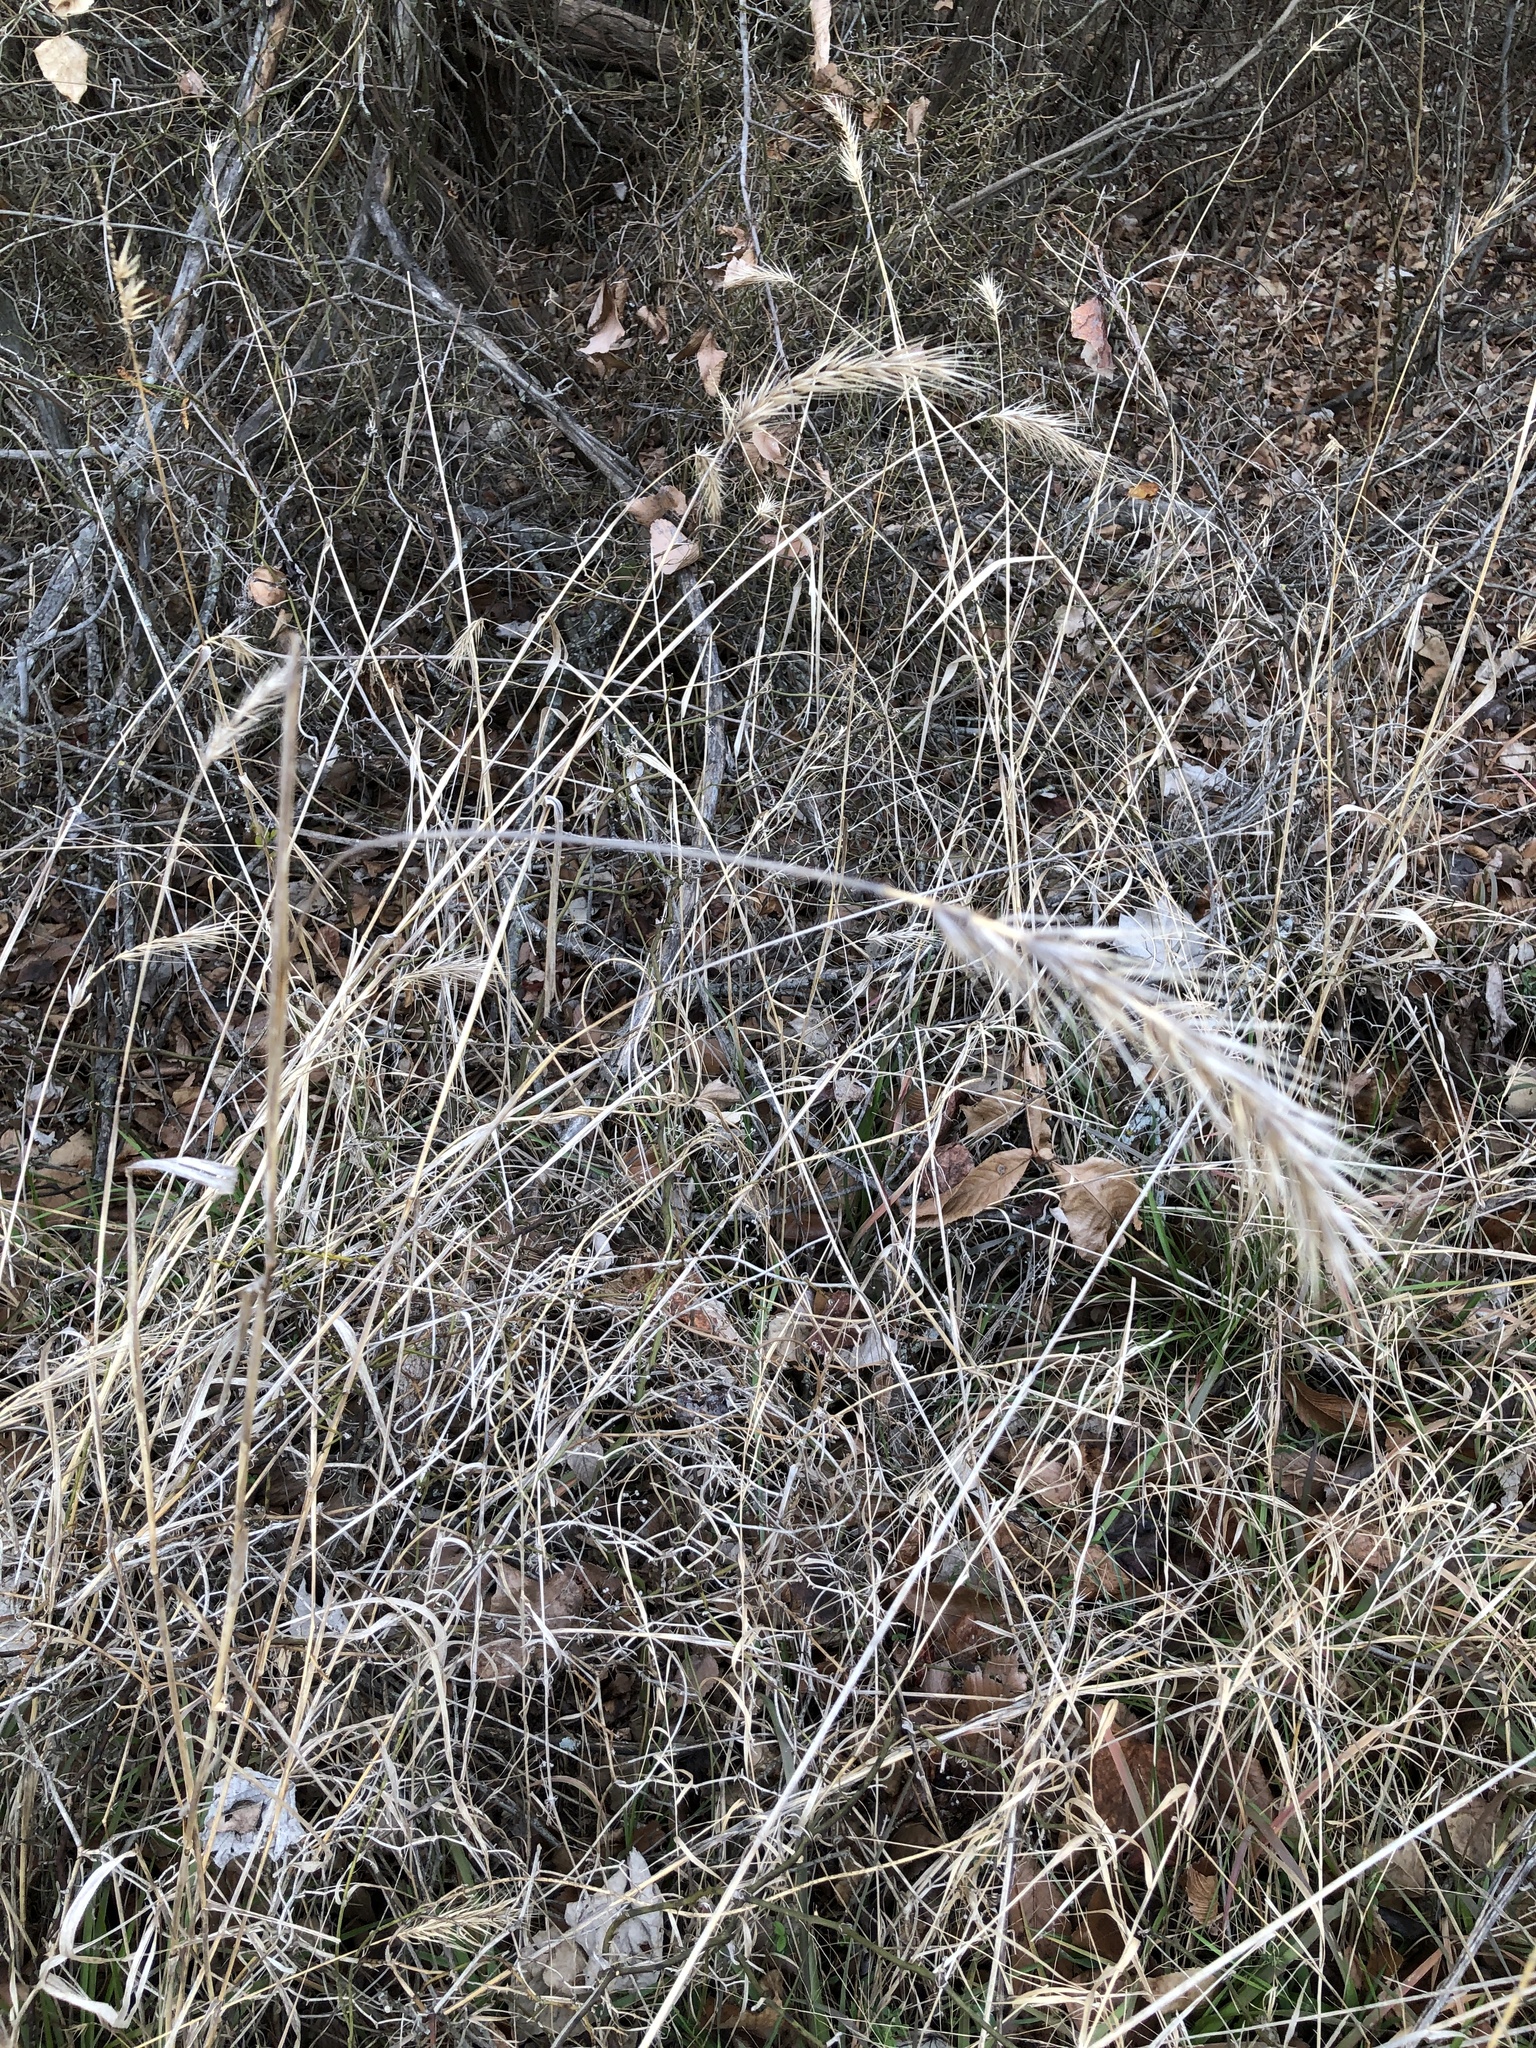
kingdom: Plantae
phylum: Tracheophyta
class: Liliopsida
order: Poales
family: Poaceae
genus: Elymus
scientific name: Elymus canadensis
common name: Canada wild rye
